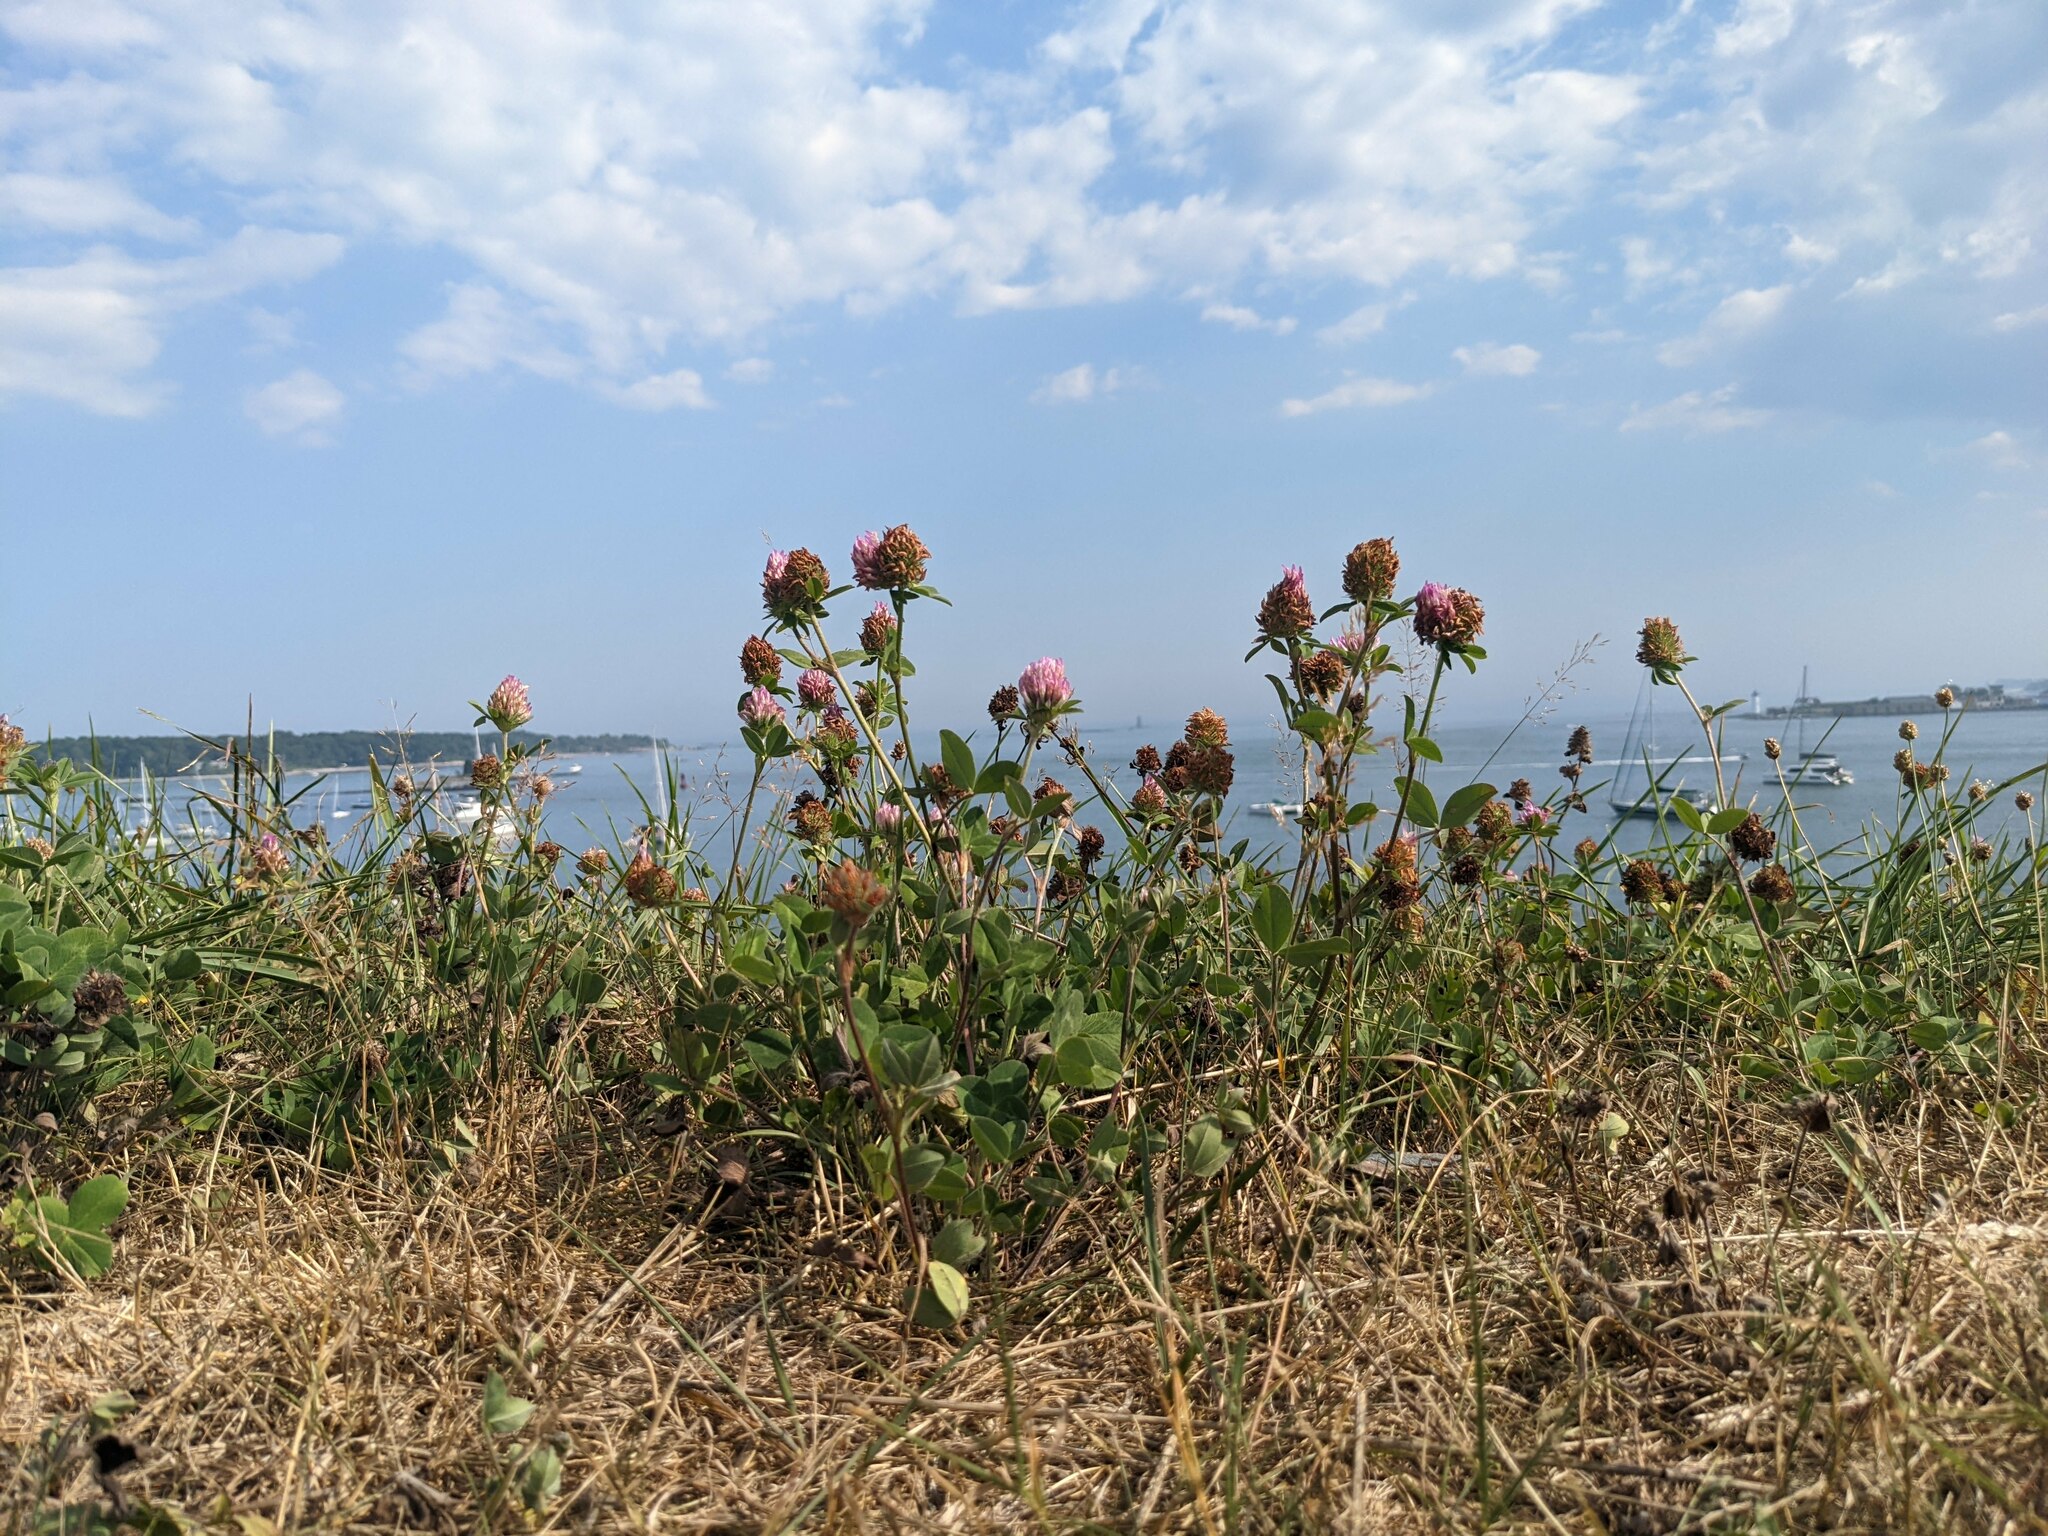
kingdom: Plantae
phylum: Tracheophyta
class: Magnoliopsida
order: Fabales
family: Fabaceae
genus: Trifolium
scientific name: Trifolium pratense
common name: Red clover
